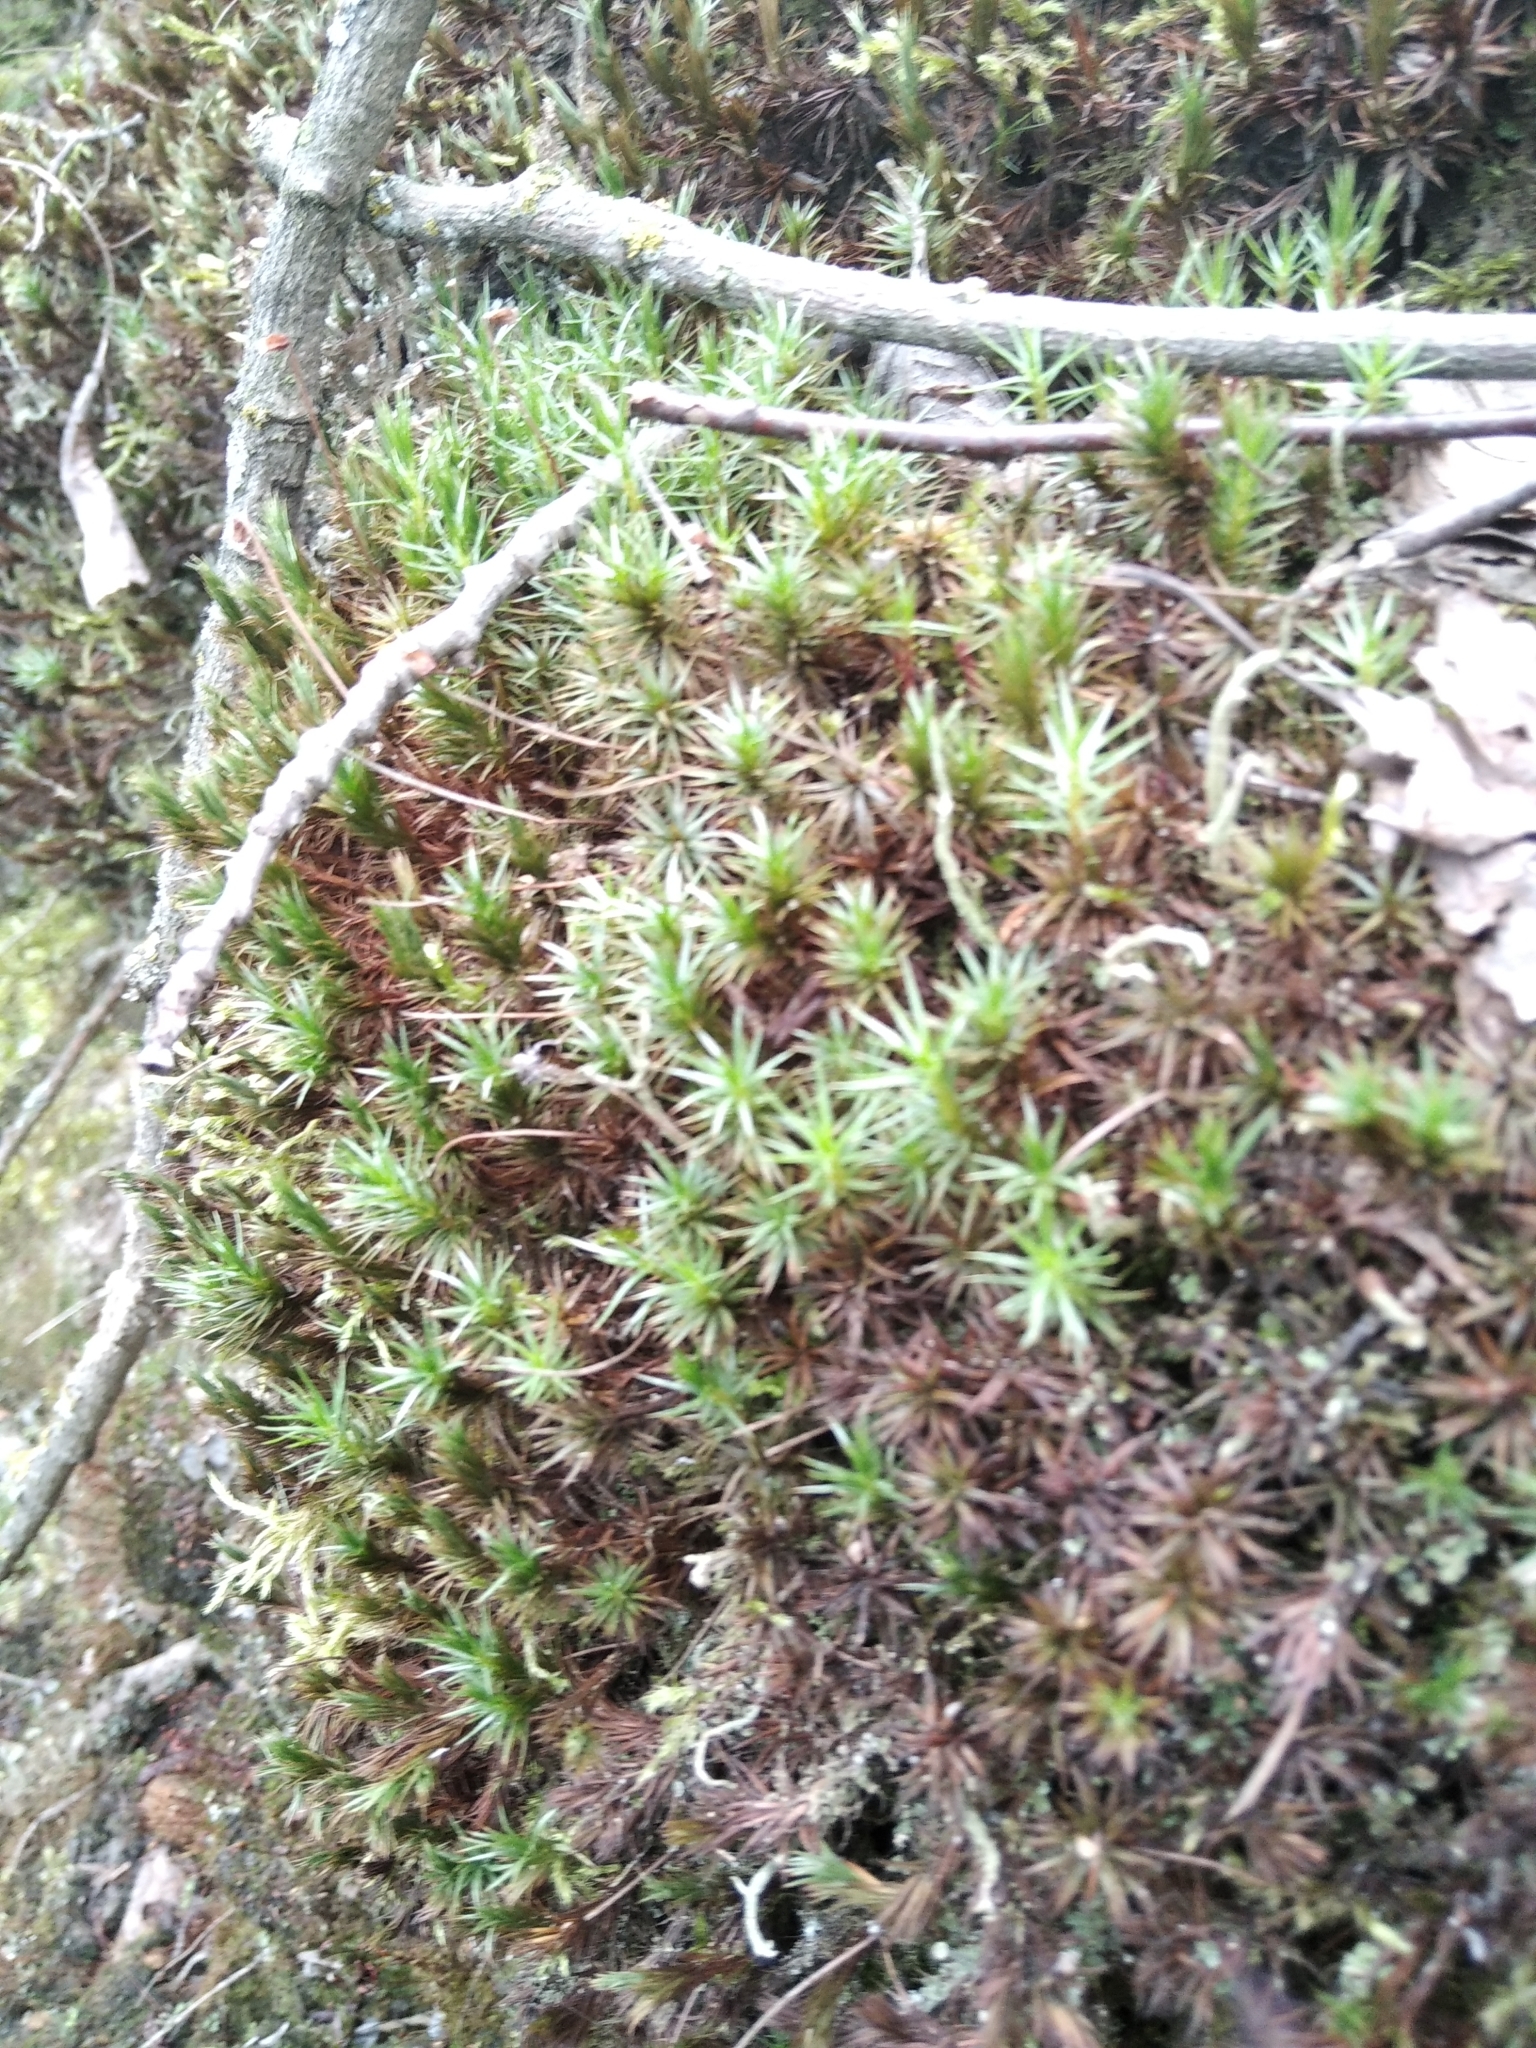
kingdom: Plantae
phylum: Bryophyta
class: Polytrichopsida
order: Polytrichales
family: Polytrichaceae
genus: Polytrichum
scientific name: Polytrichum juniperinum
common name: Juniper haircap moss
